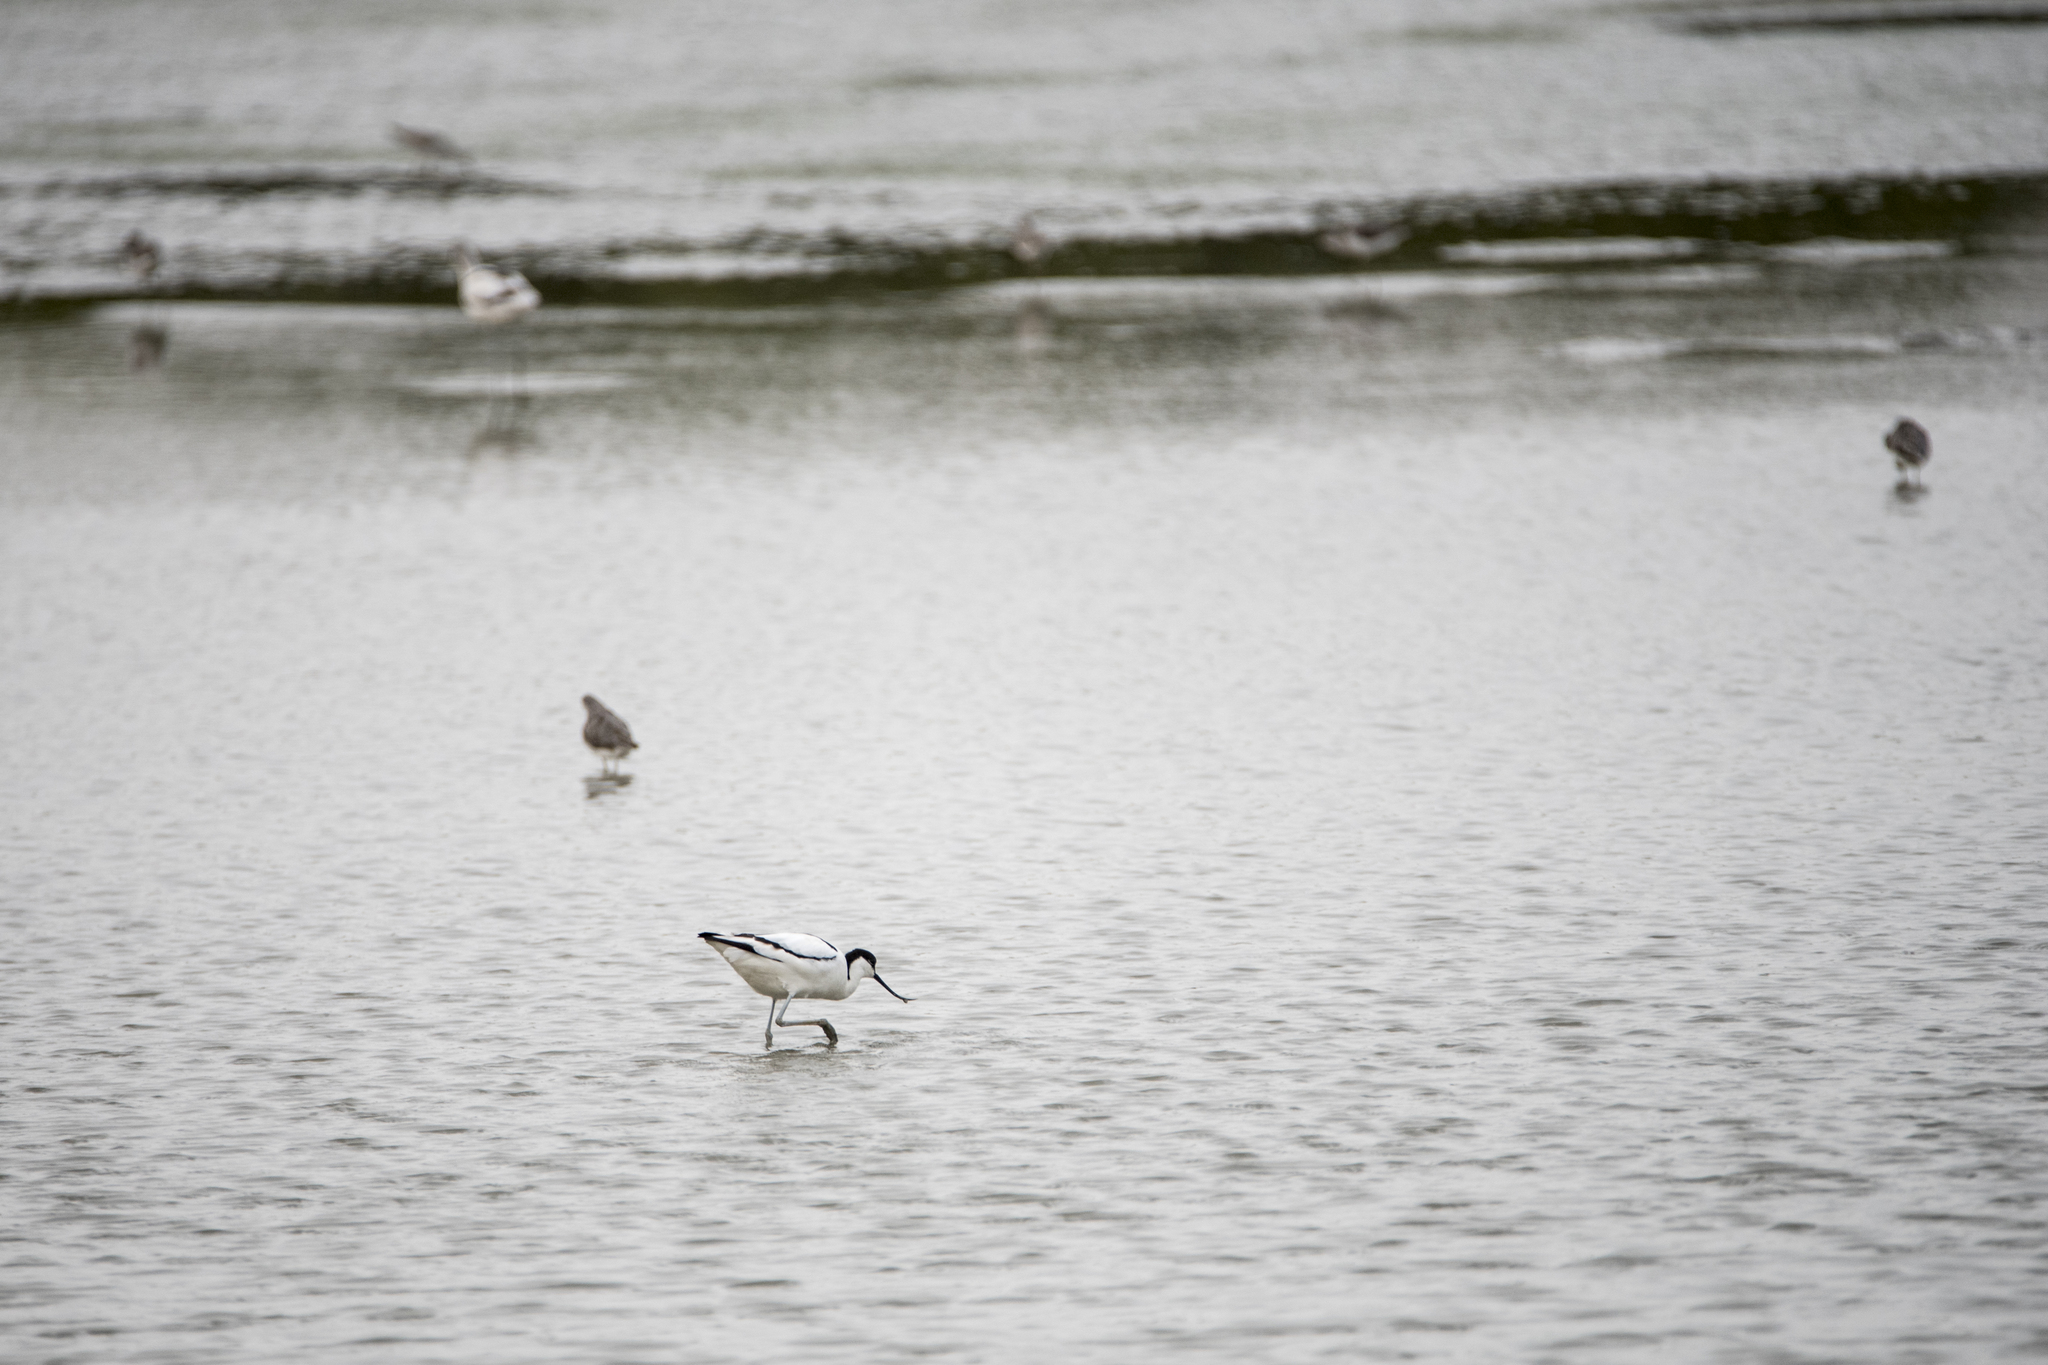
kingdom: Animalia
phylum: Chordata
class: Aves
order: Charadriiformes
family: Recurvirostridae
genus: Recurvirostra
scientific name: Recurvirostra avosetta
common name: Pied avocet
